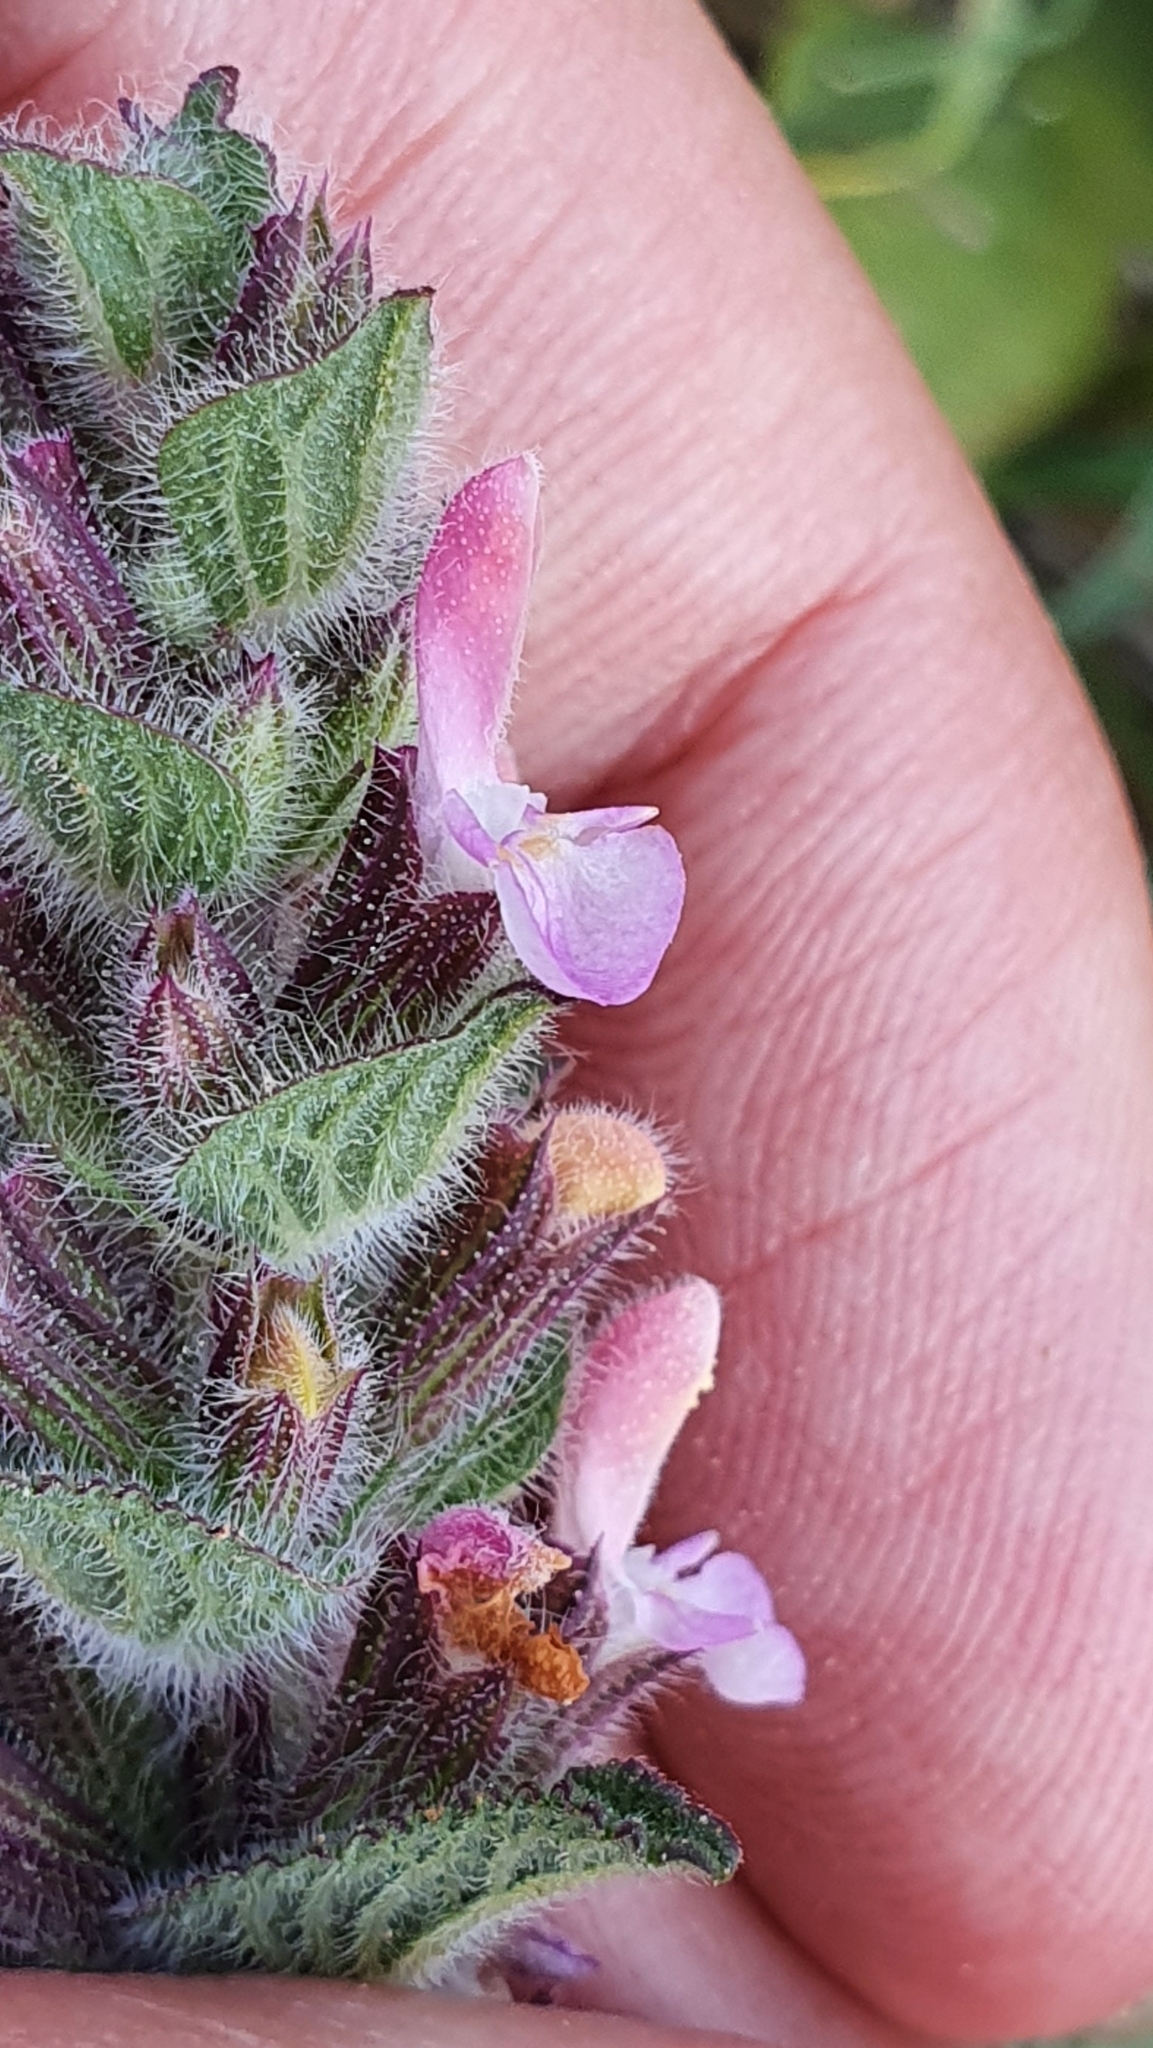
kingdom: Plantae
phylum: Tracheophyta
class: Magnoliopsida
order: Lamiales
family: Lamiaceae
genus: Salvia
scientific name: Salvia viridis
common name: Annual clary
